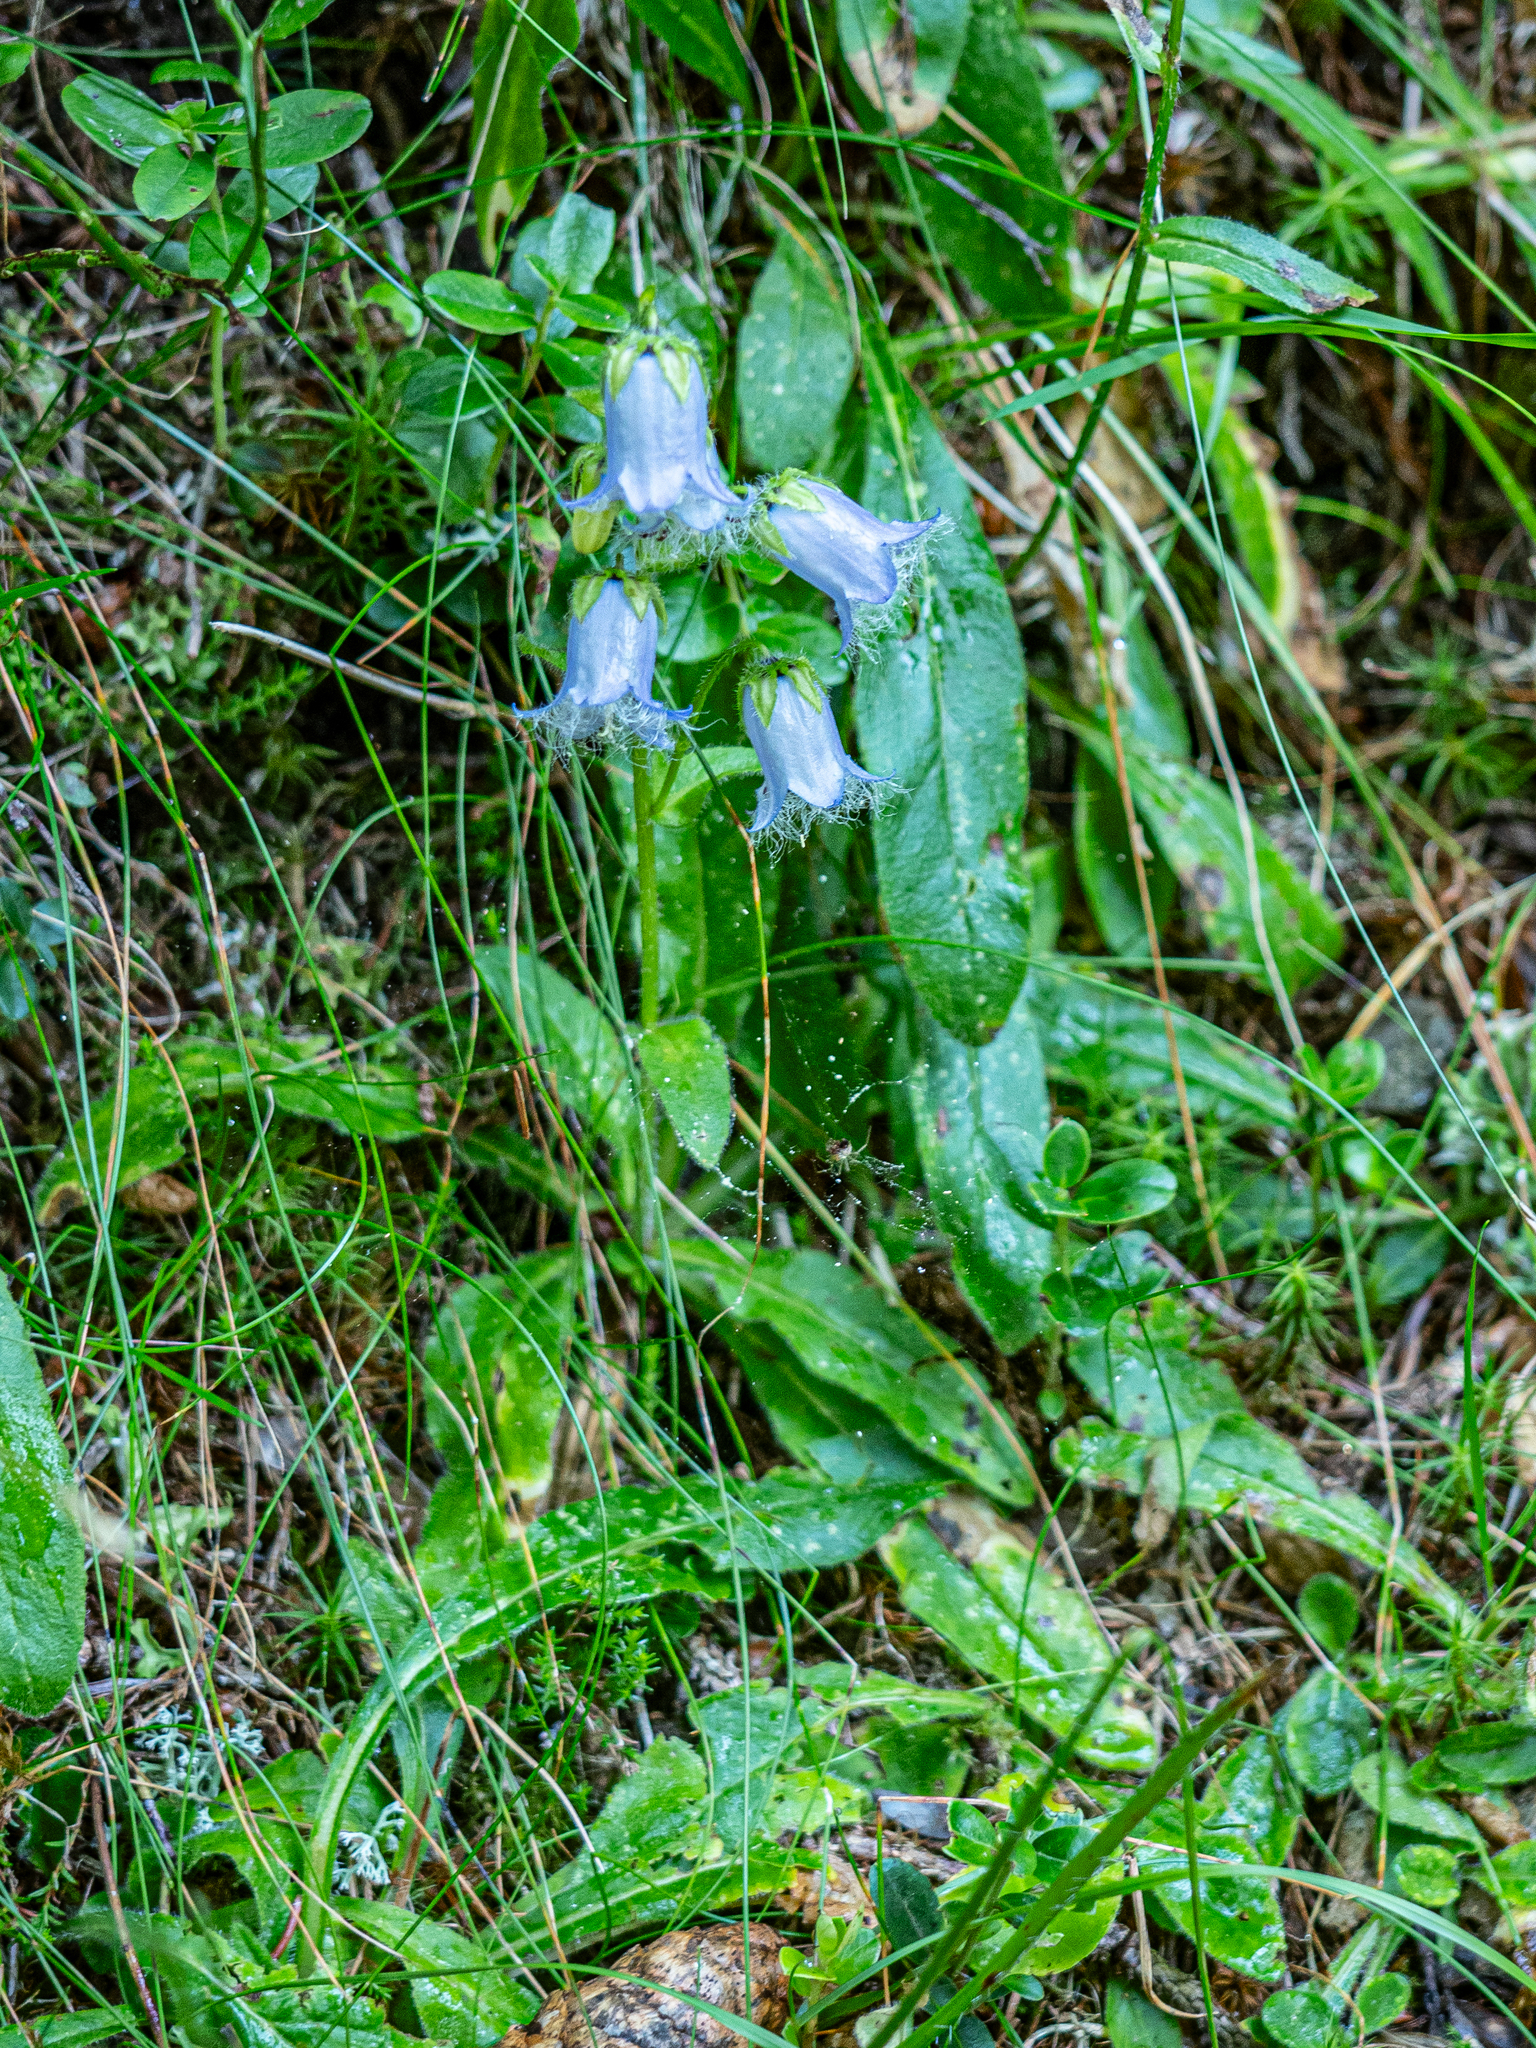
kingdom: Plantae
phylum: Tracheophyta
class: Magnoliopsida
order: Asterales
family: Campanulaceae
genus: Campanula
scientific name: Campanula barbata
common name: Bearded bellflower
